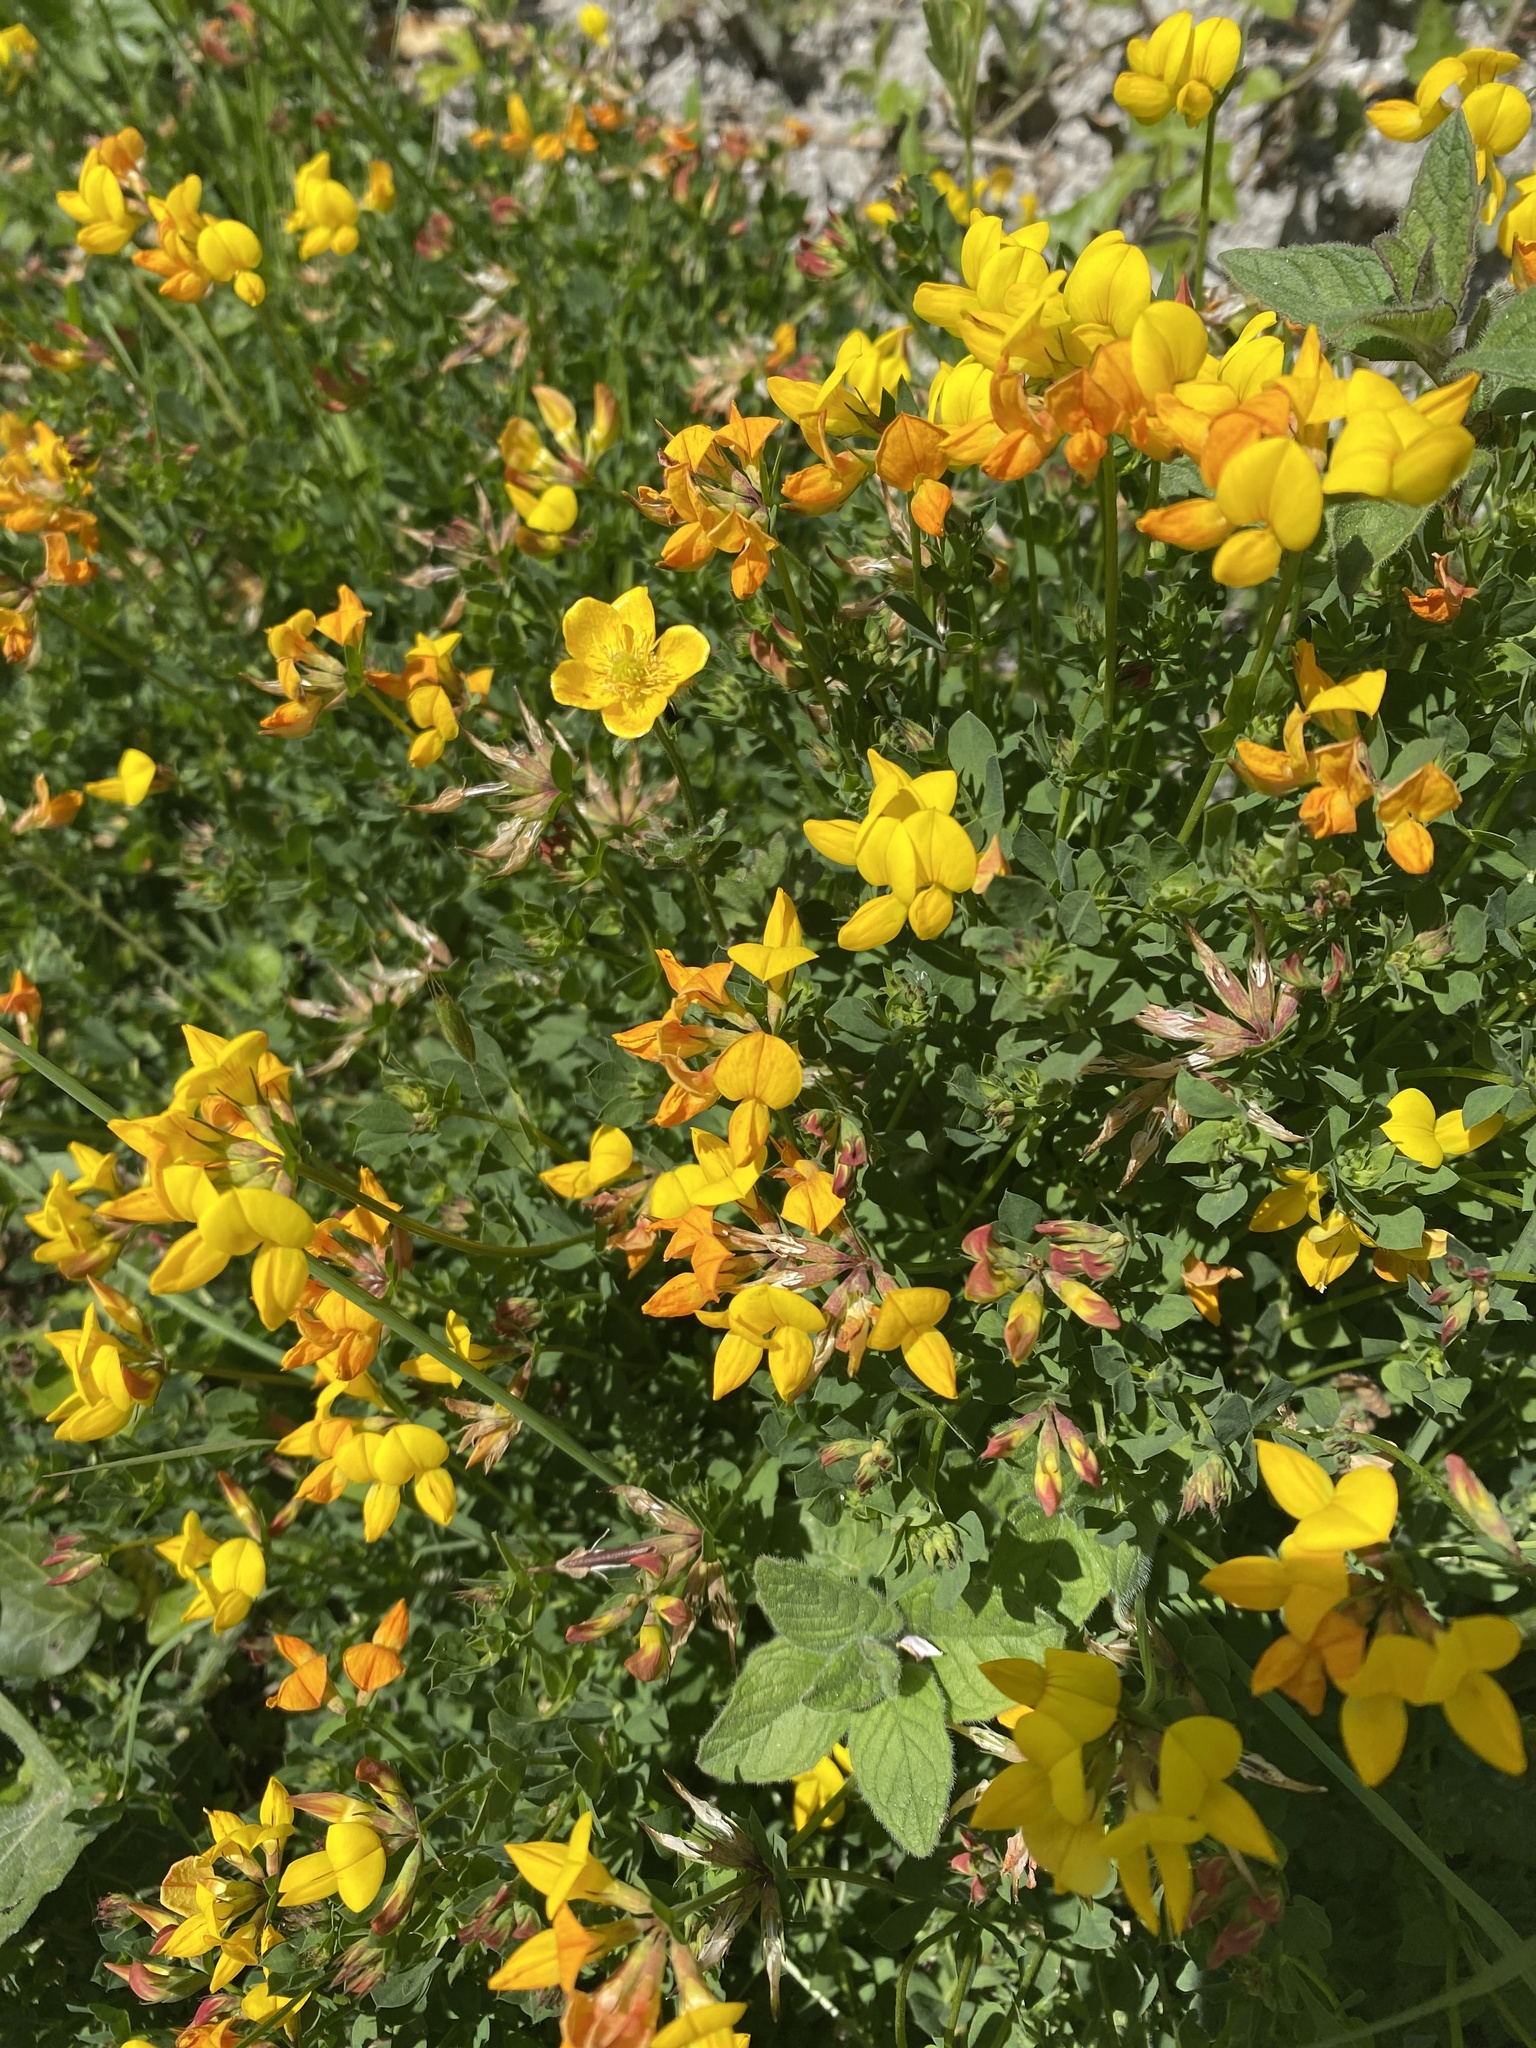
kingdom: Plantae
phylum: Tracheophyta
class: Magnoliopsida
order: Fabales
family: Fabaceae
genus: Lotus
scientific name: Lotus corniculatus
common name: Common bird's-foot-trefoil
